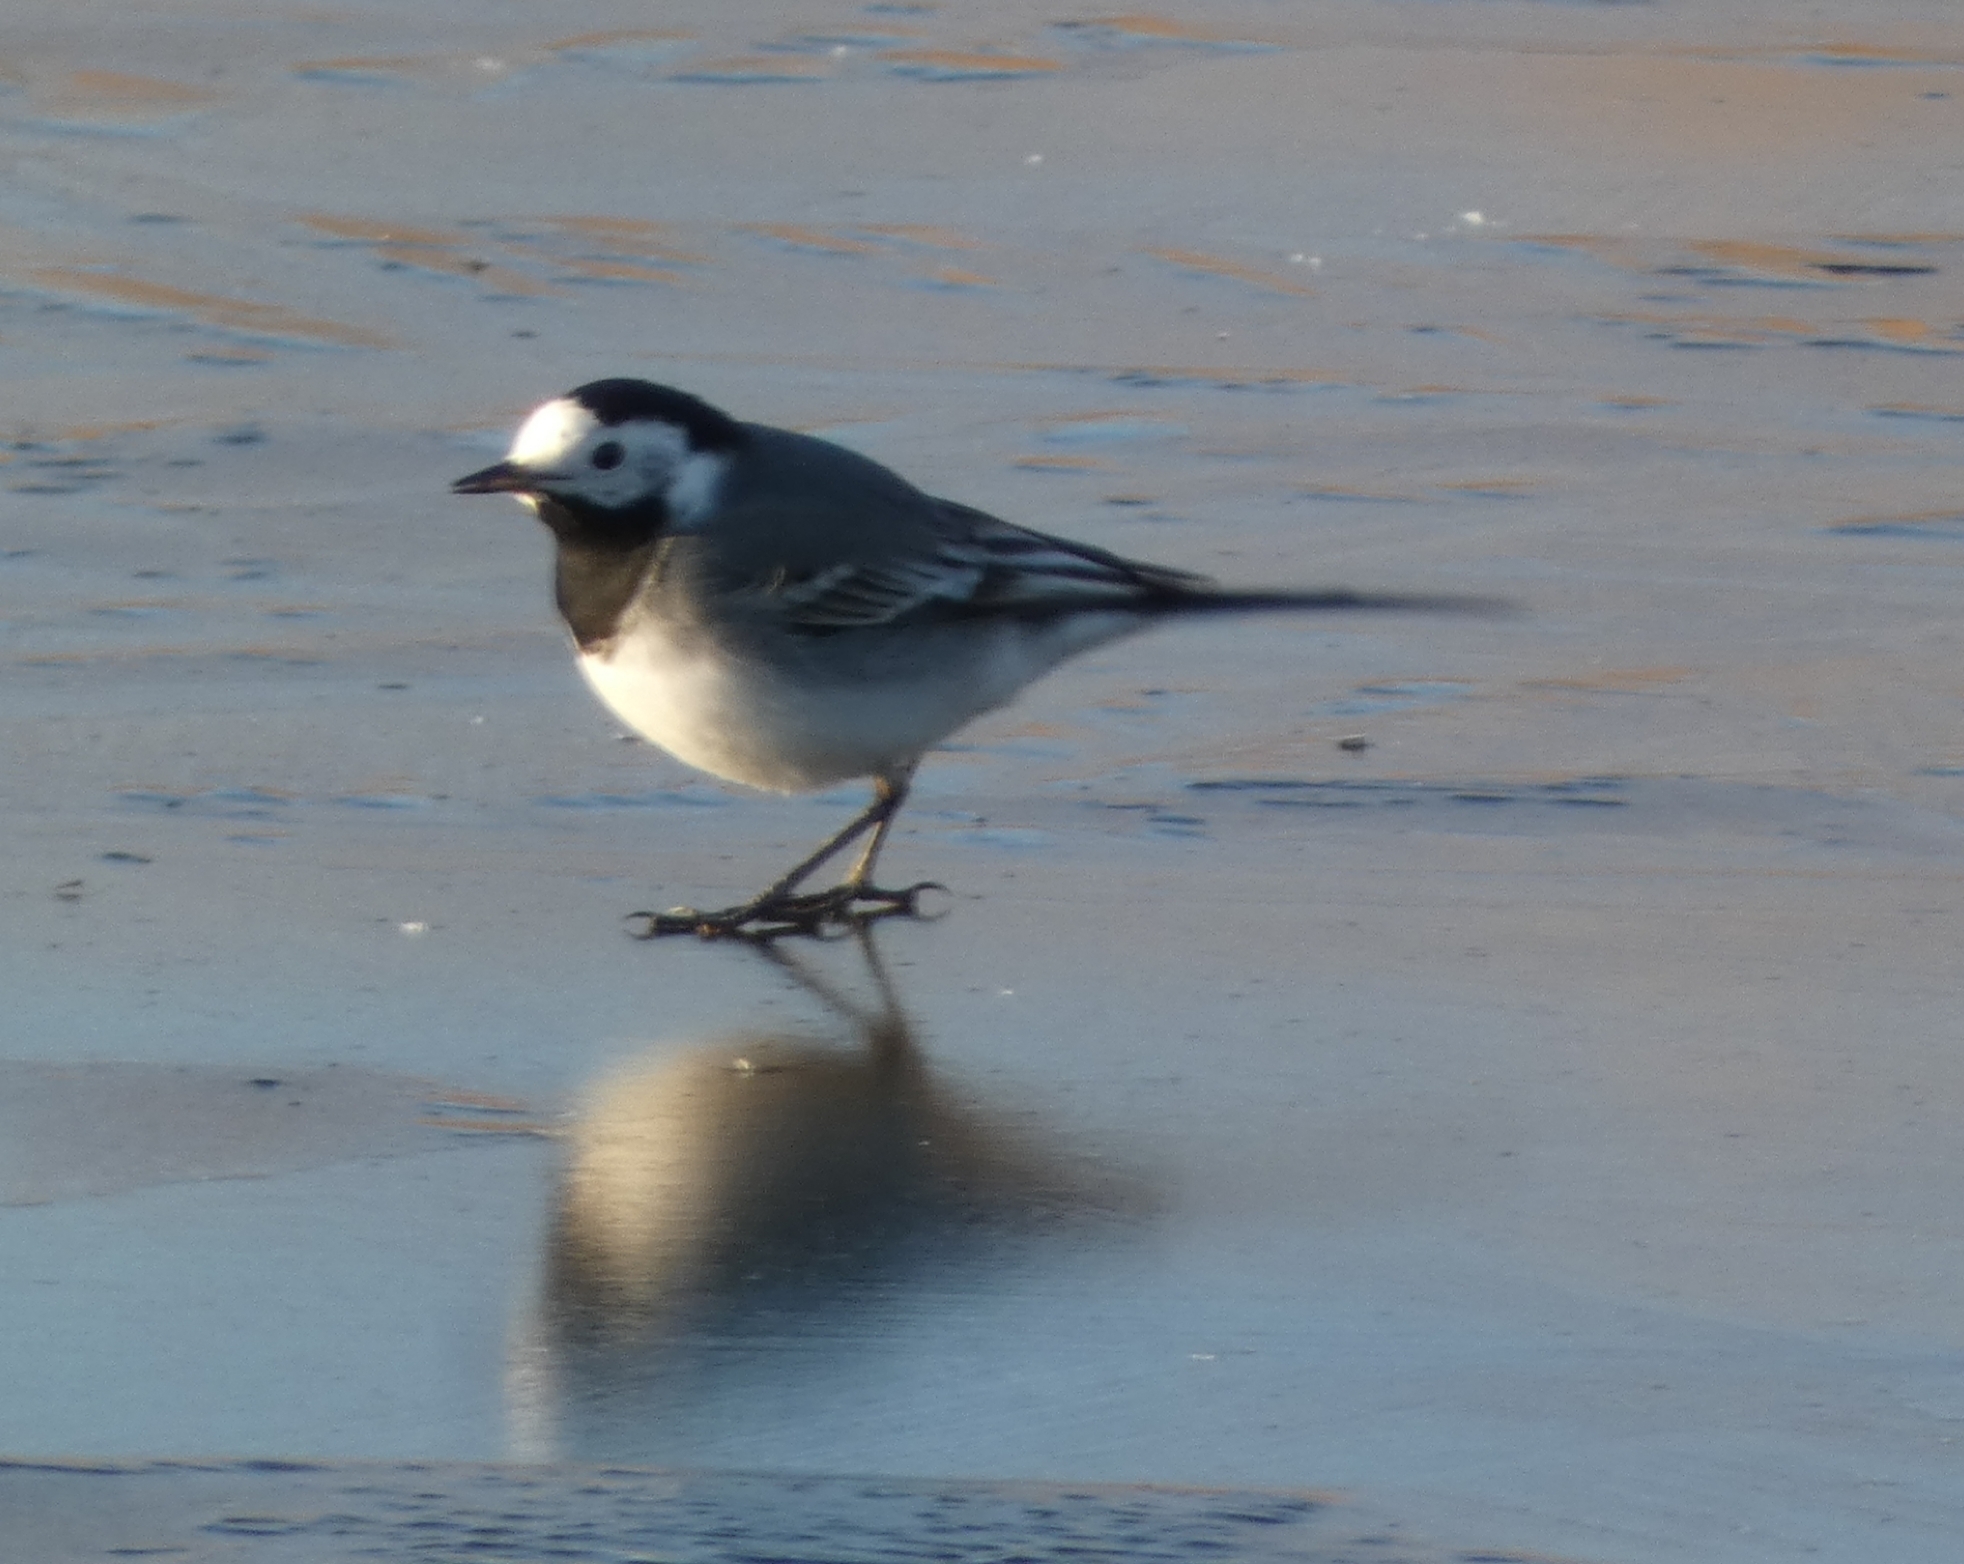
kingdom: Animalia
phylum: Chordata
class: Aves
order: Passeriformes
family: Motacillidae
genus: Motacilla
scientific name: Motacilla alba
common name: White wagtail
